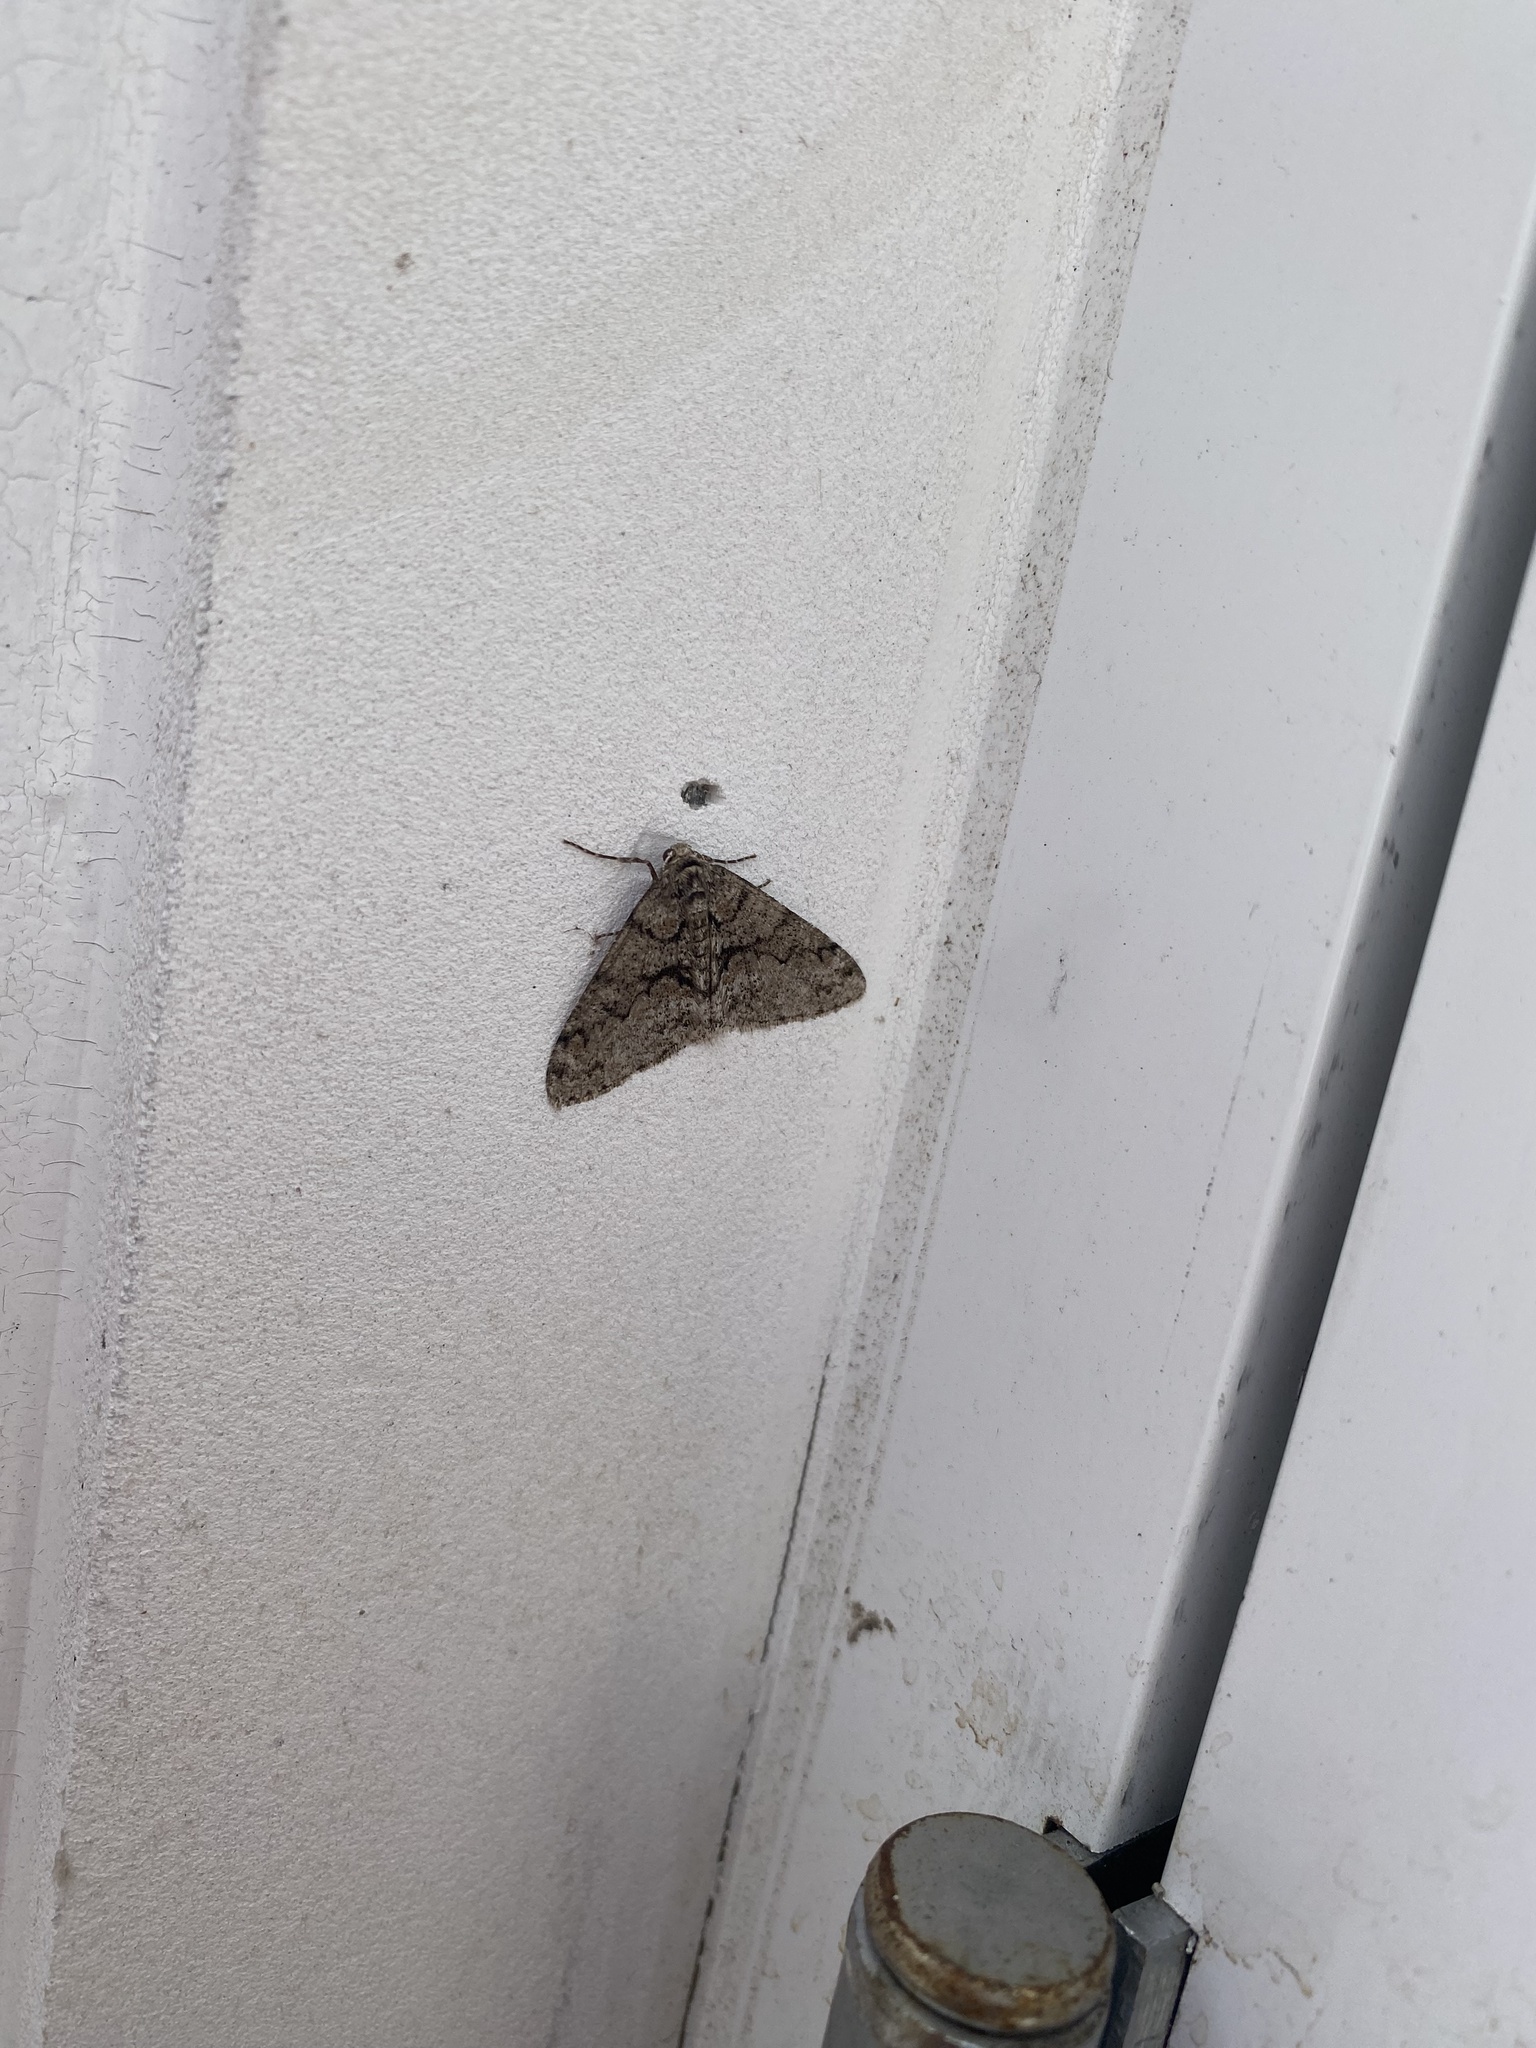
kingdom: Animalia
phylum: Arthropoda
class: Insecta
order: Lepidoptera
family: Geometridae
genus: Phigalia
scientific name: Phigalia denticulata
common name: Toothed phigalia
